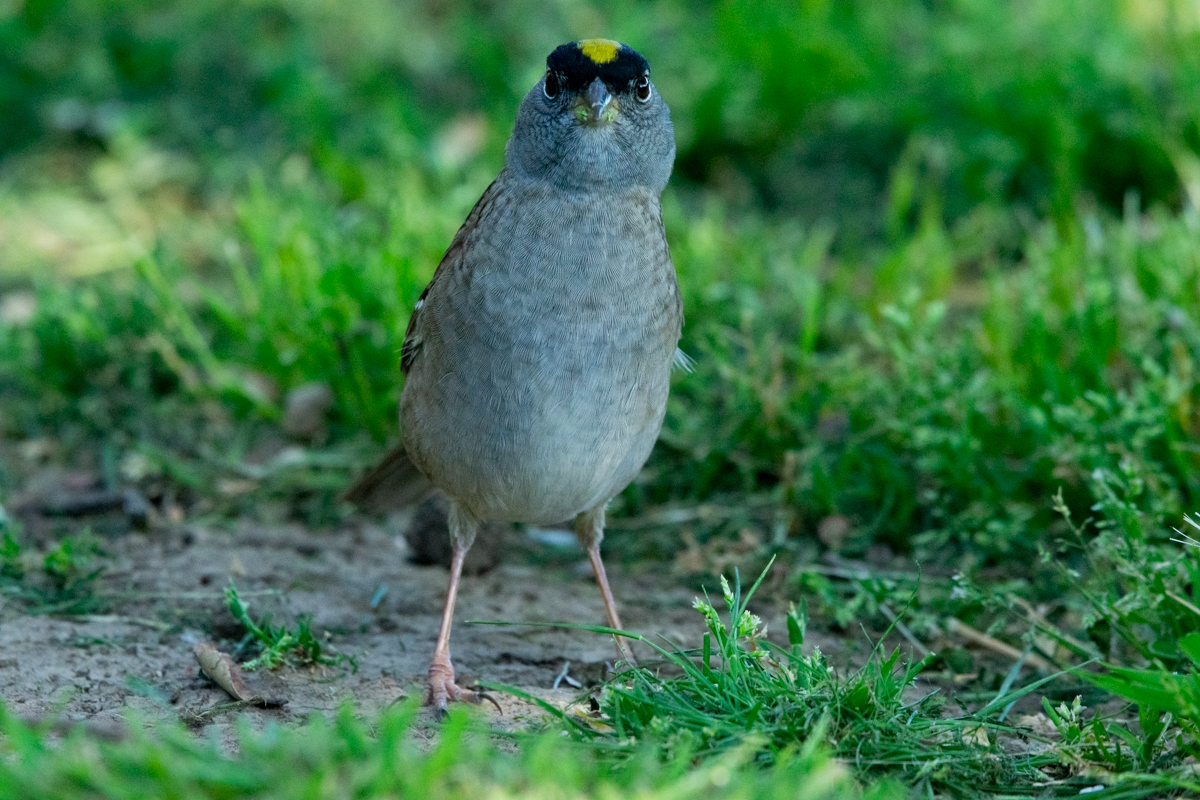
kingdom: Animalia
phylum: Chordata
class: Aves
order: Passeriformes
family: Passerellidae
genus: Zonotrichia
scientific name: Zonotrichia atricapilla
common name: Golden-crowned sparrow
